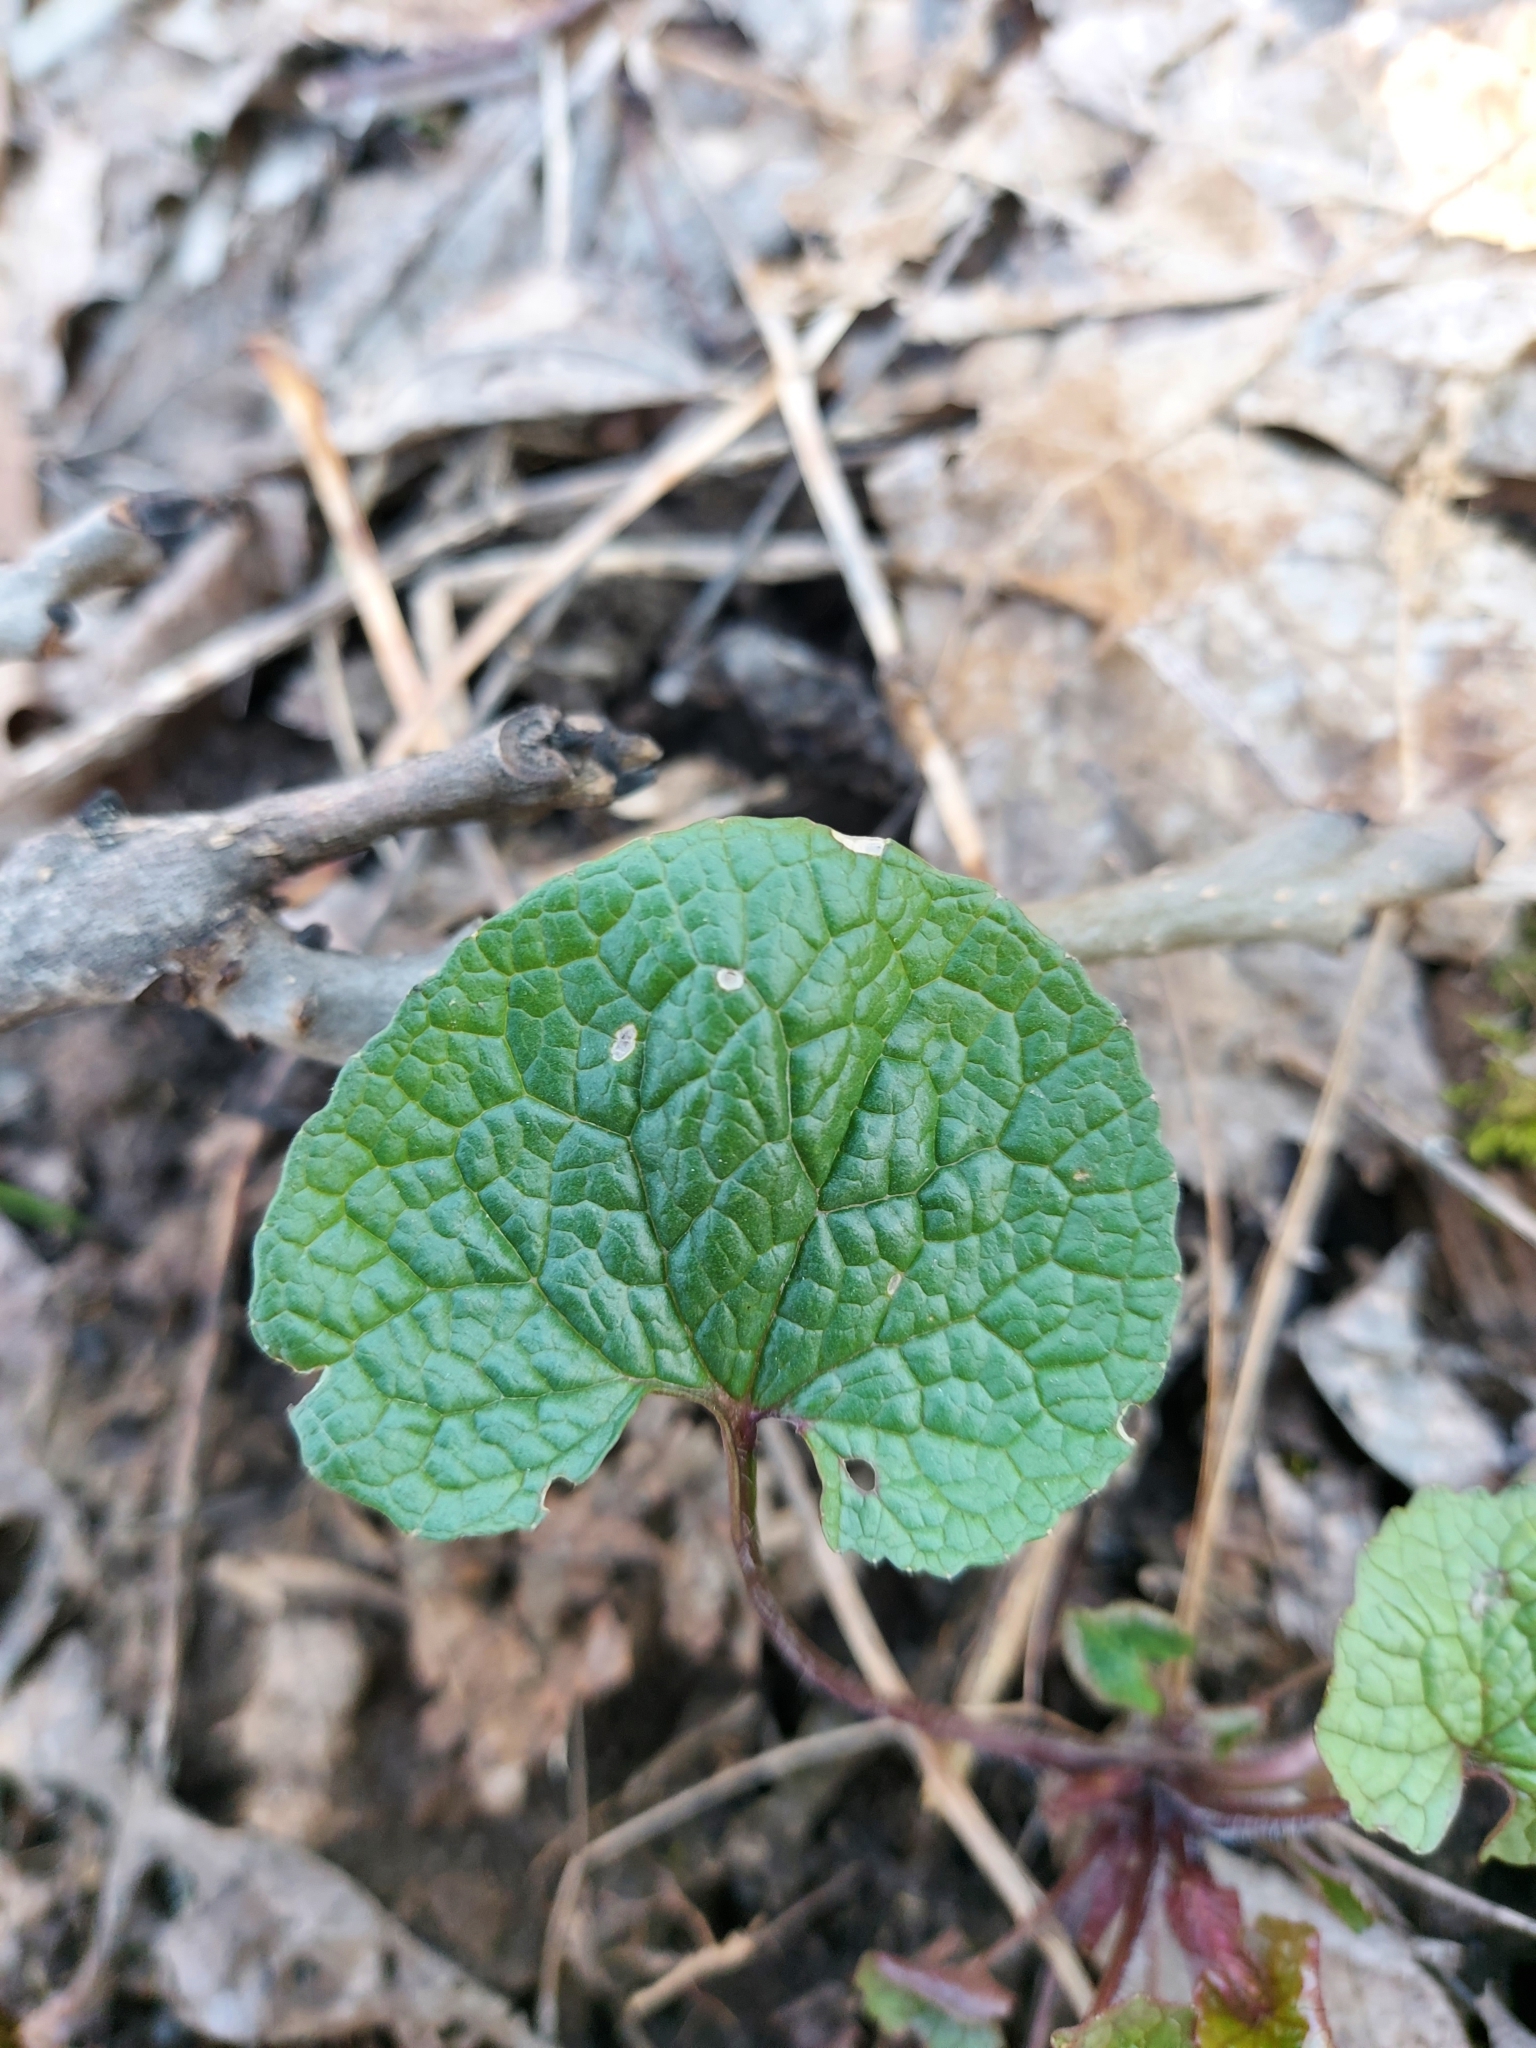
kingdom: Plantae
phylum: Tracheophyta
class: Magnoliopsida
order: Brassicales
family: Brassicaceae
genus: Alliaria
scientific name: Alliaria petiolata
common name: Garlic mustard
